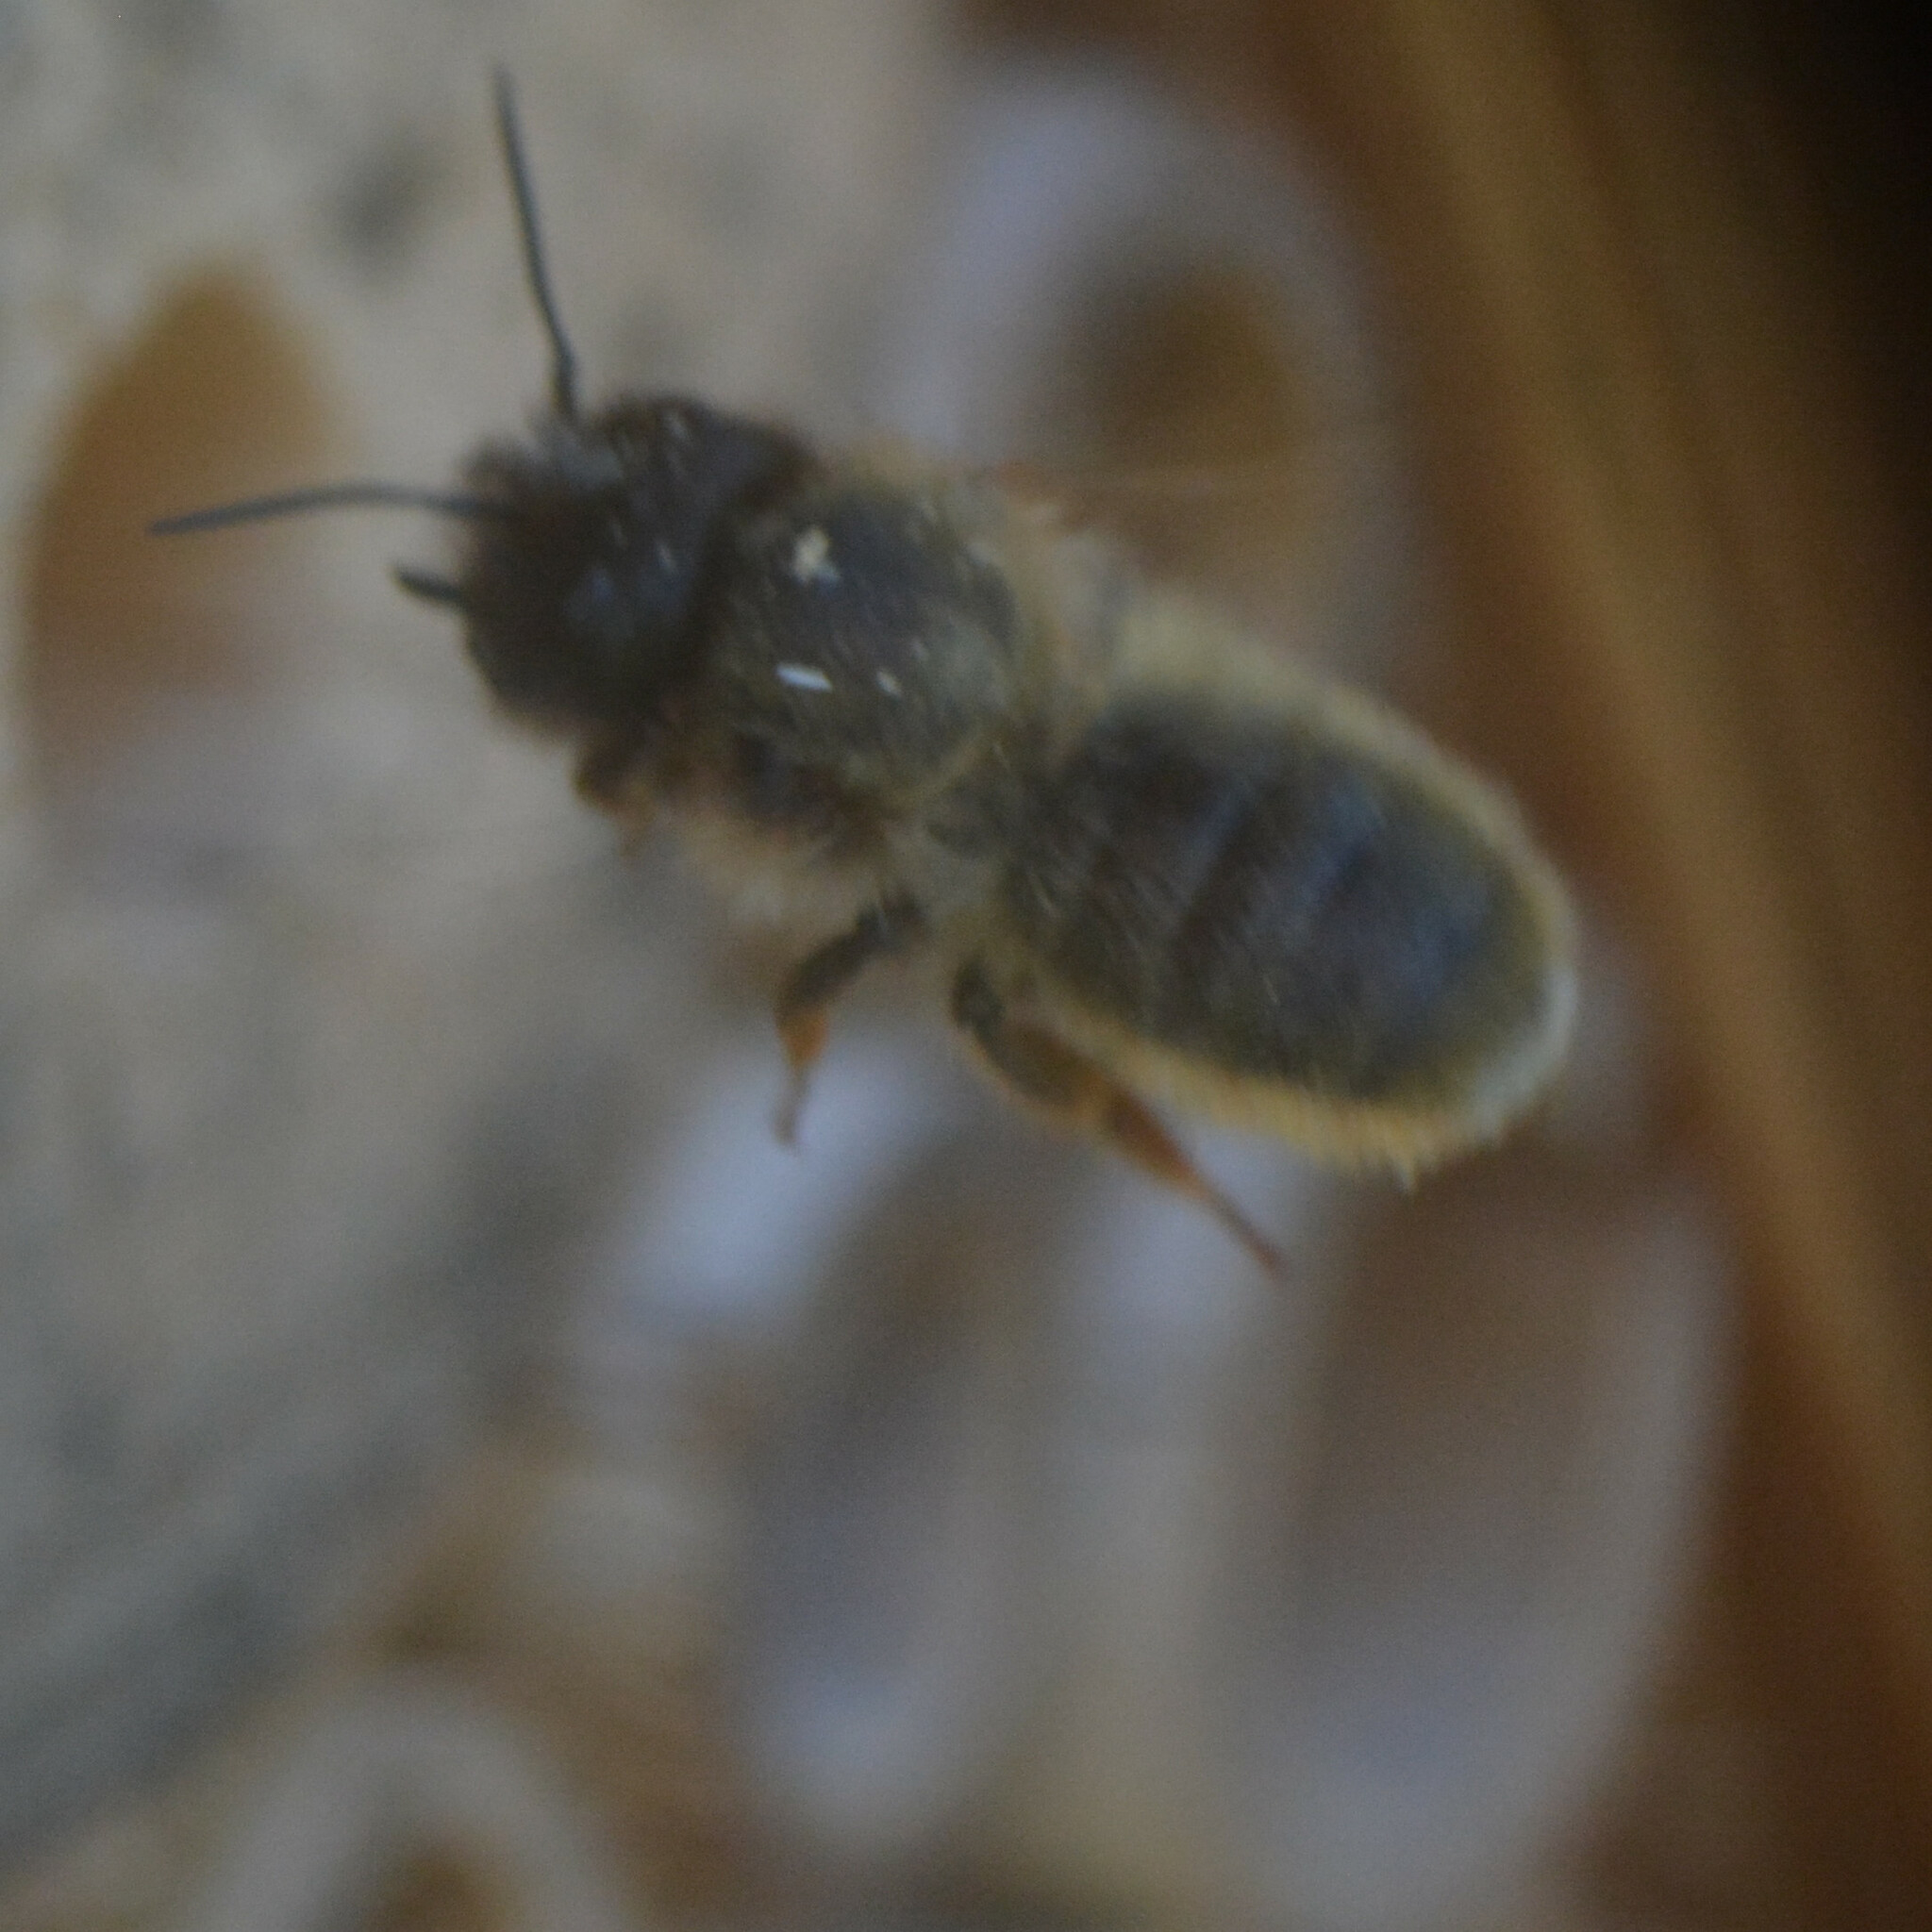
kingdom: Animalia
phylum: Arthropoda
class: Insecta
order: Hymenoptera
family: Megachilidae
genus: Osmia
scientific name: Osmia bicornis
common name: Red mason bee
